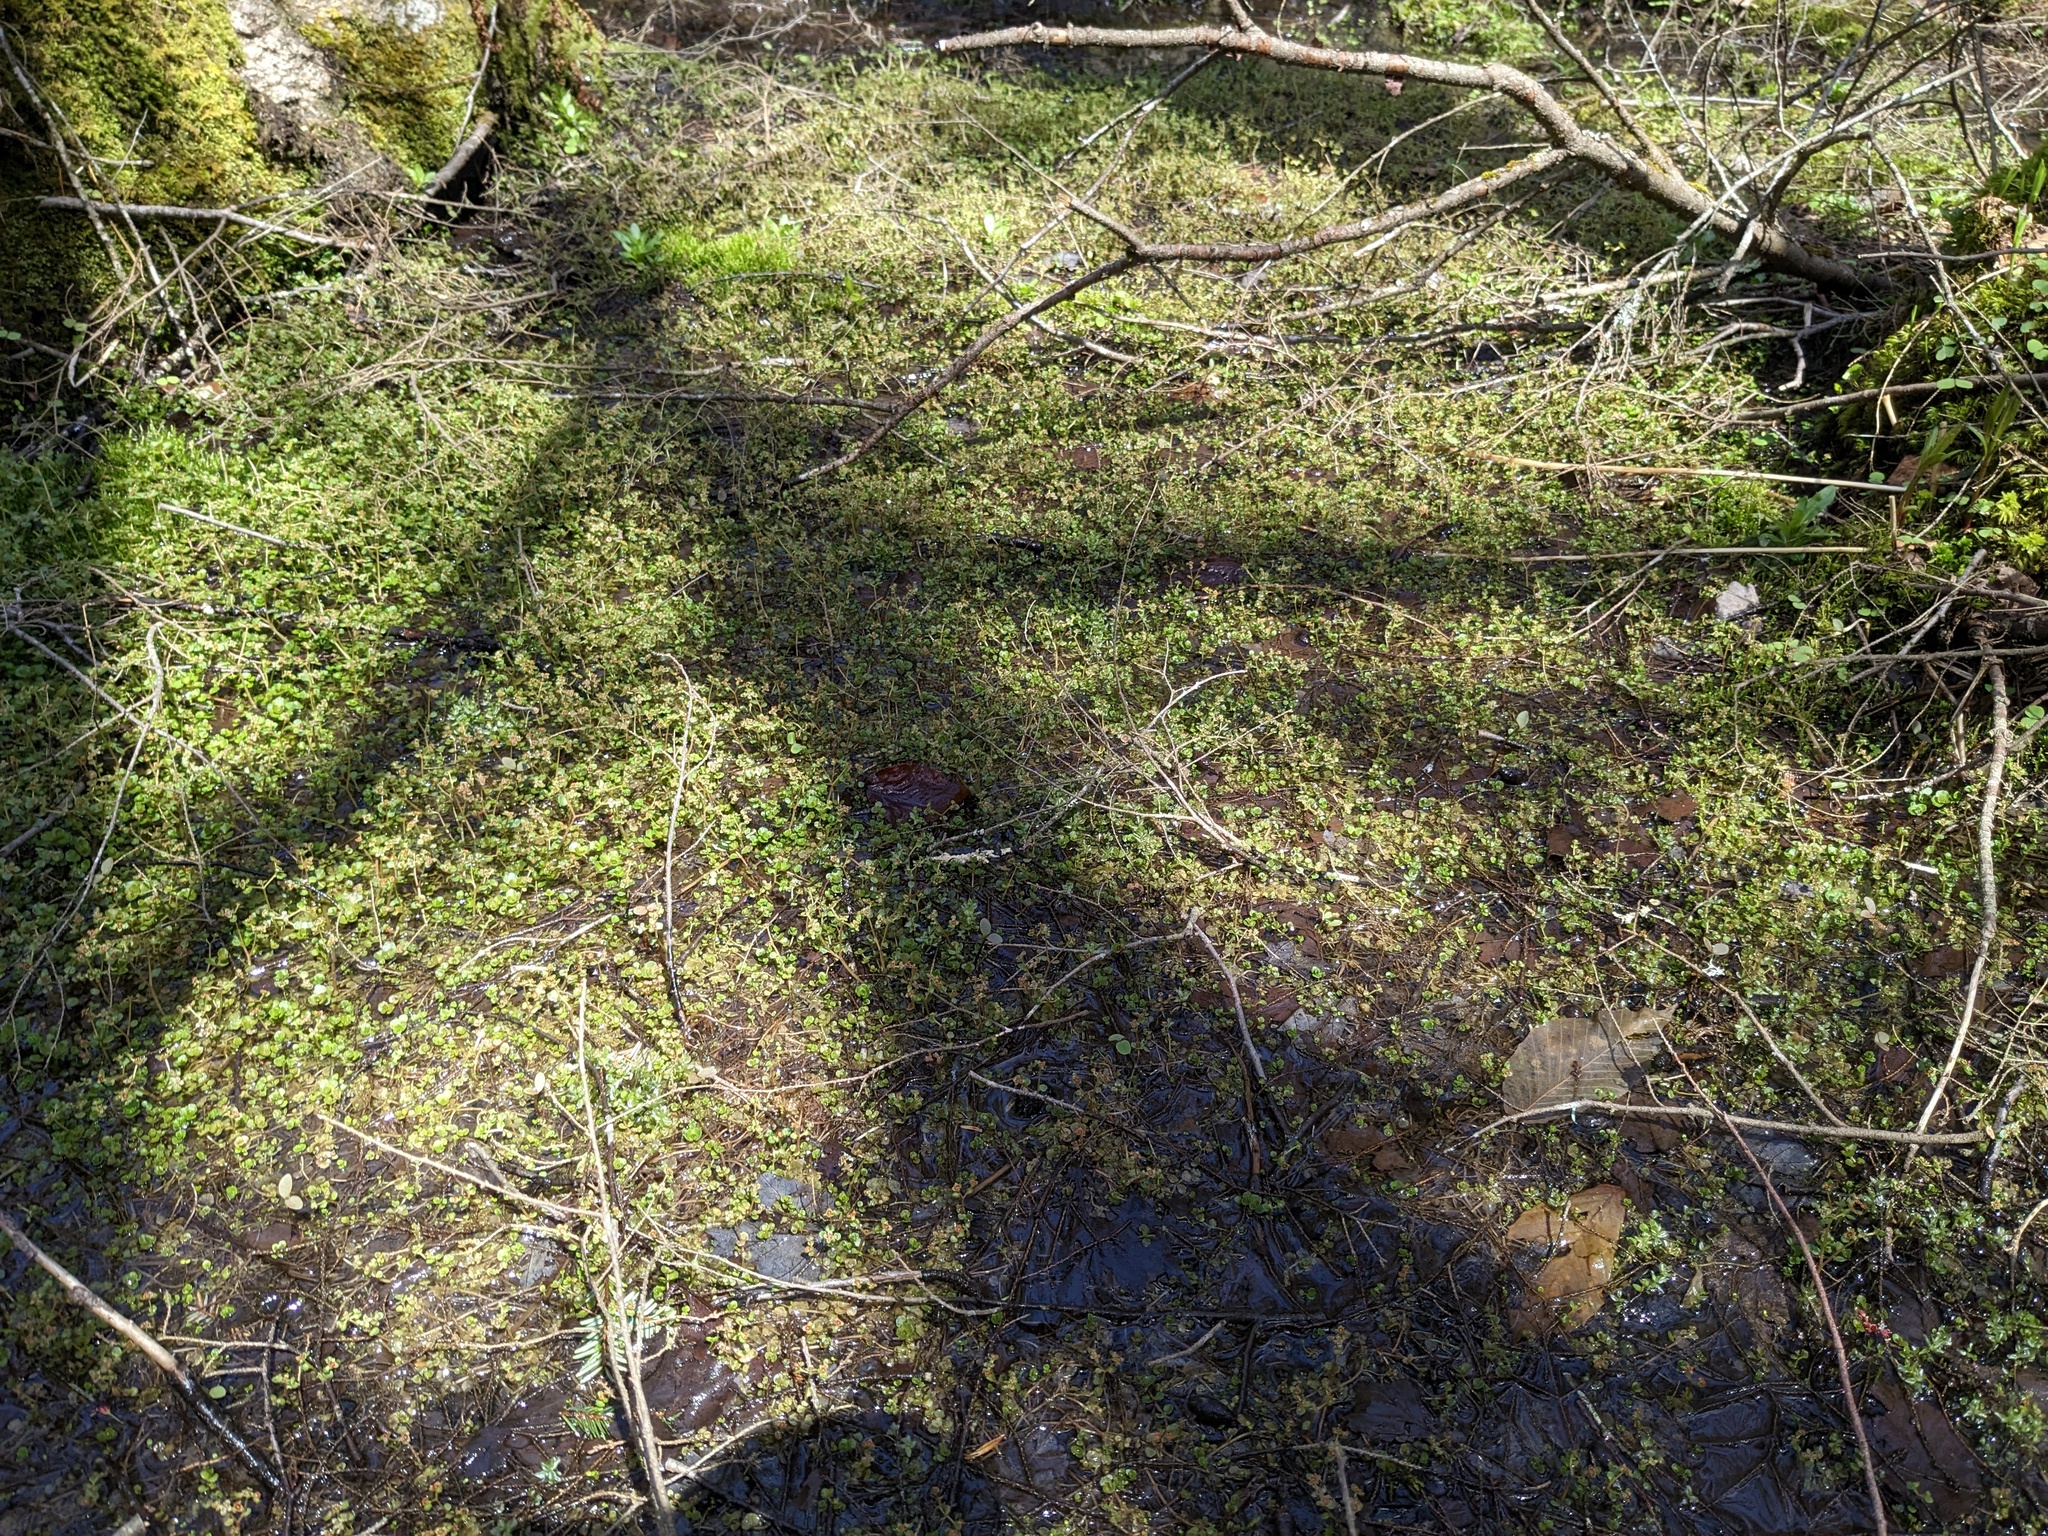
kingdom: Plantae
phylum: Tracheophyta
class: Magnoliopsida
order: Saxifragales
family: Saxifragaceae
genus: Chrysosplenium
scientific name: Chrysosplenium americanum
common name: American golden-saxifrage
